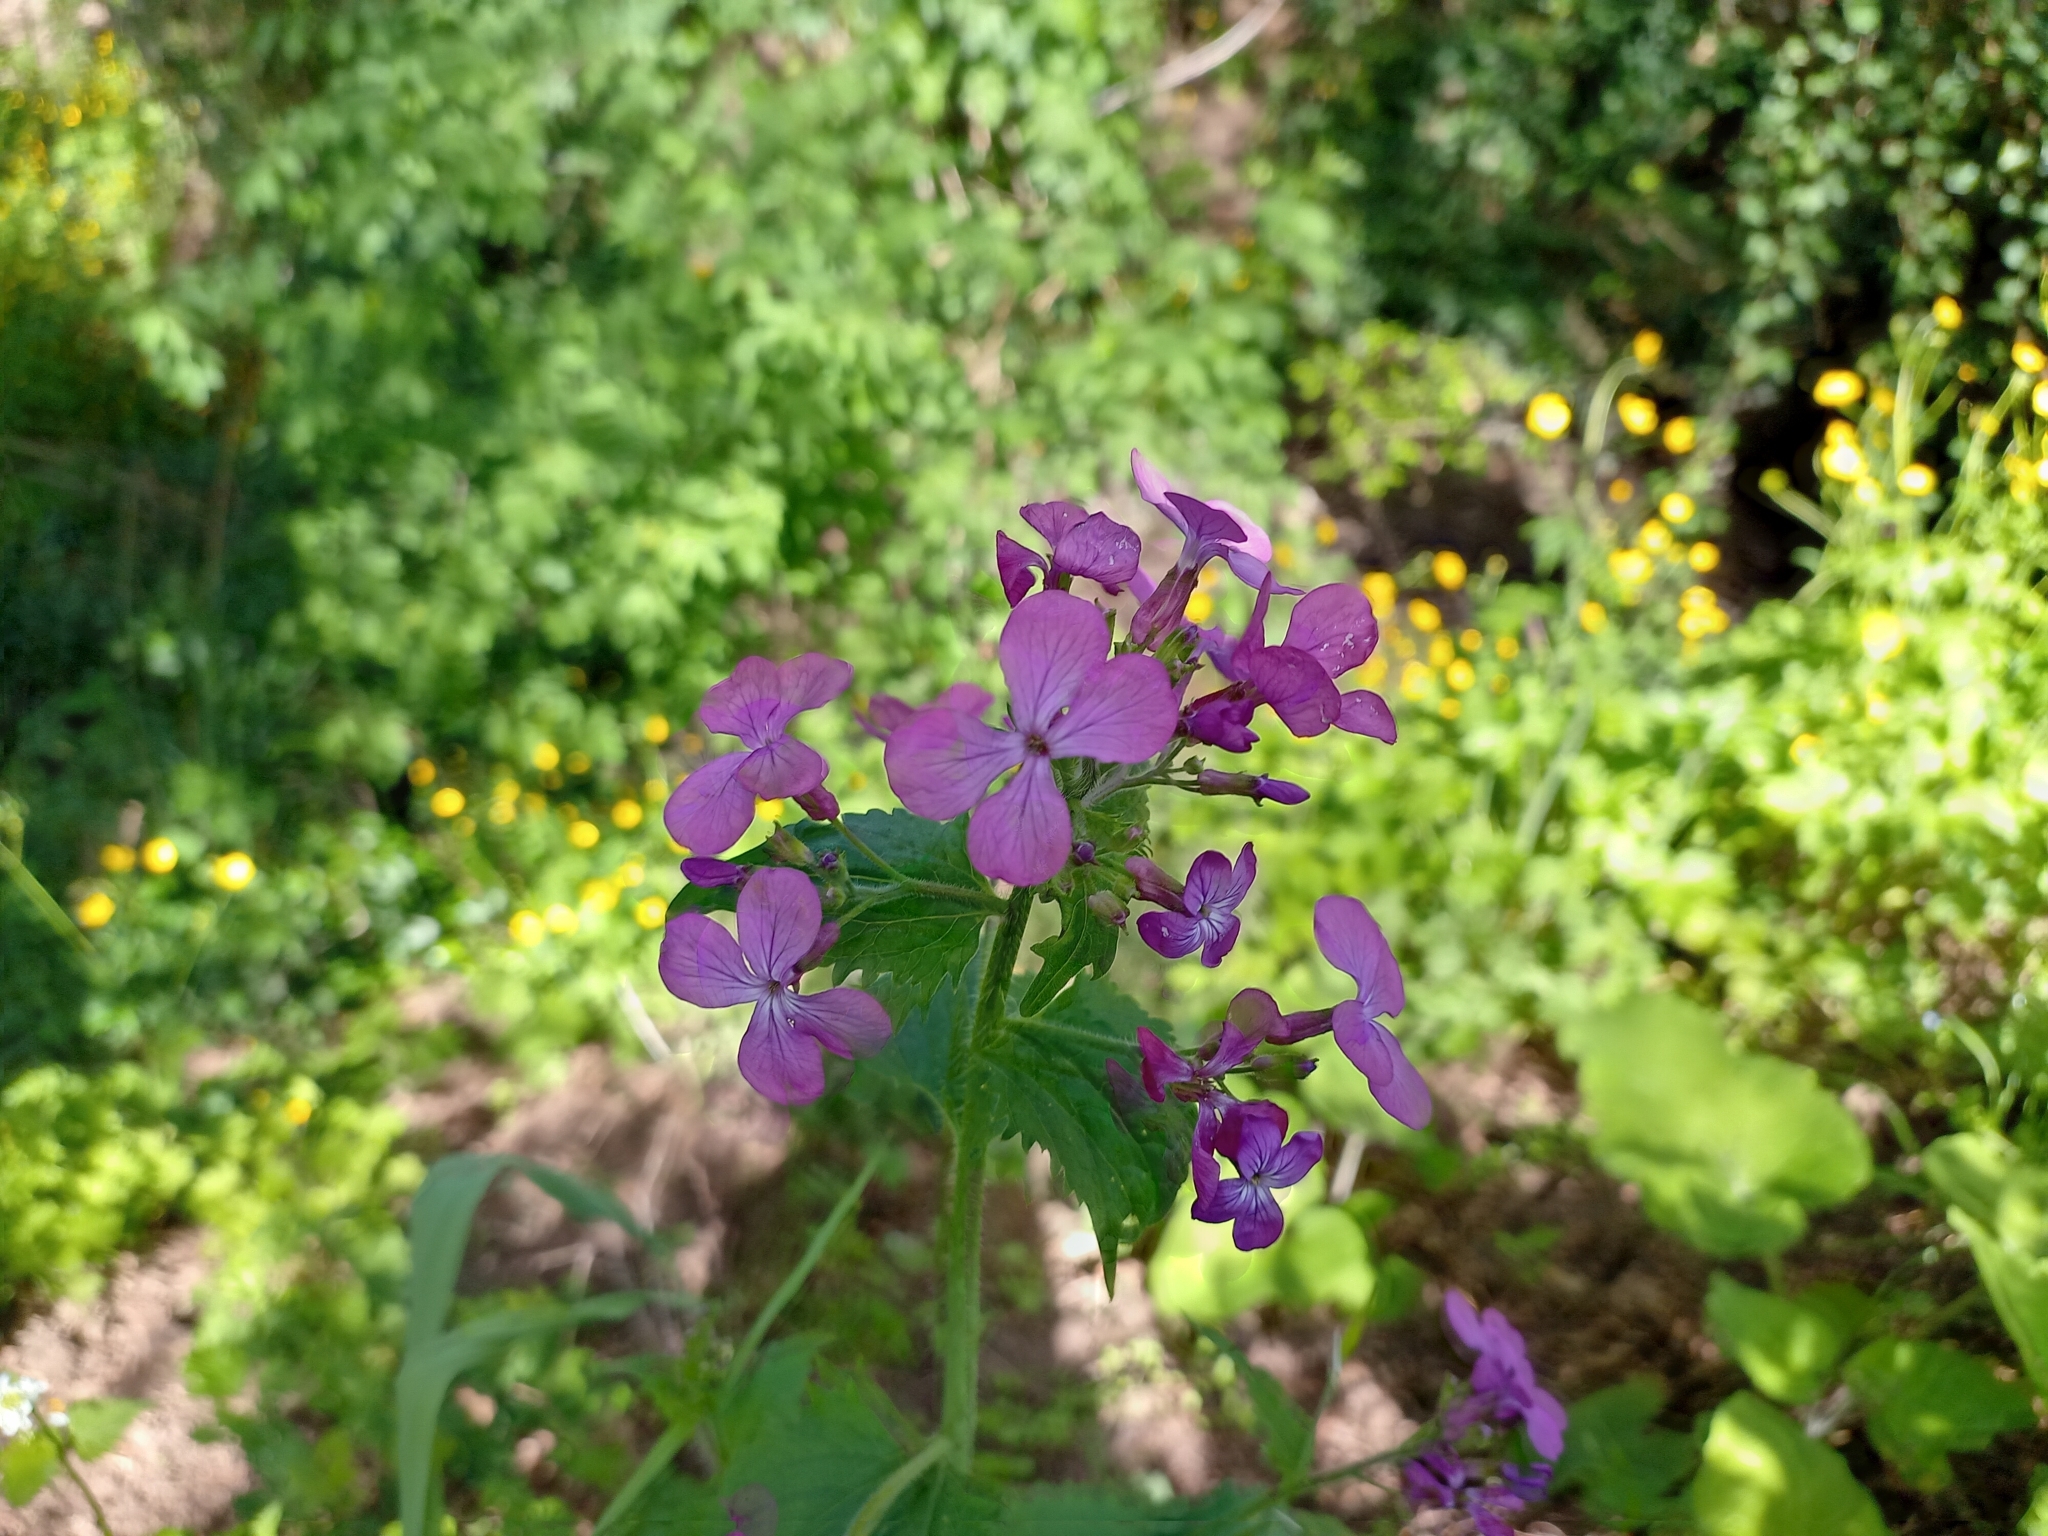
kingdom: Plantae
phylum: Tracheophyta
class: Magnoliopsida
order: Brassicales
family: Brassicaceae
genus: Lunaria
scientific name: Lunaria annua
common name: Honesty
